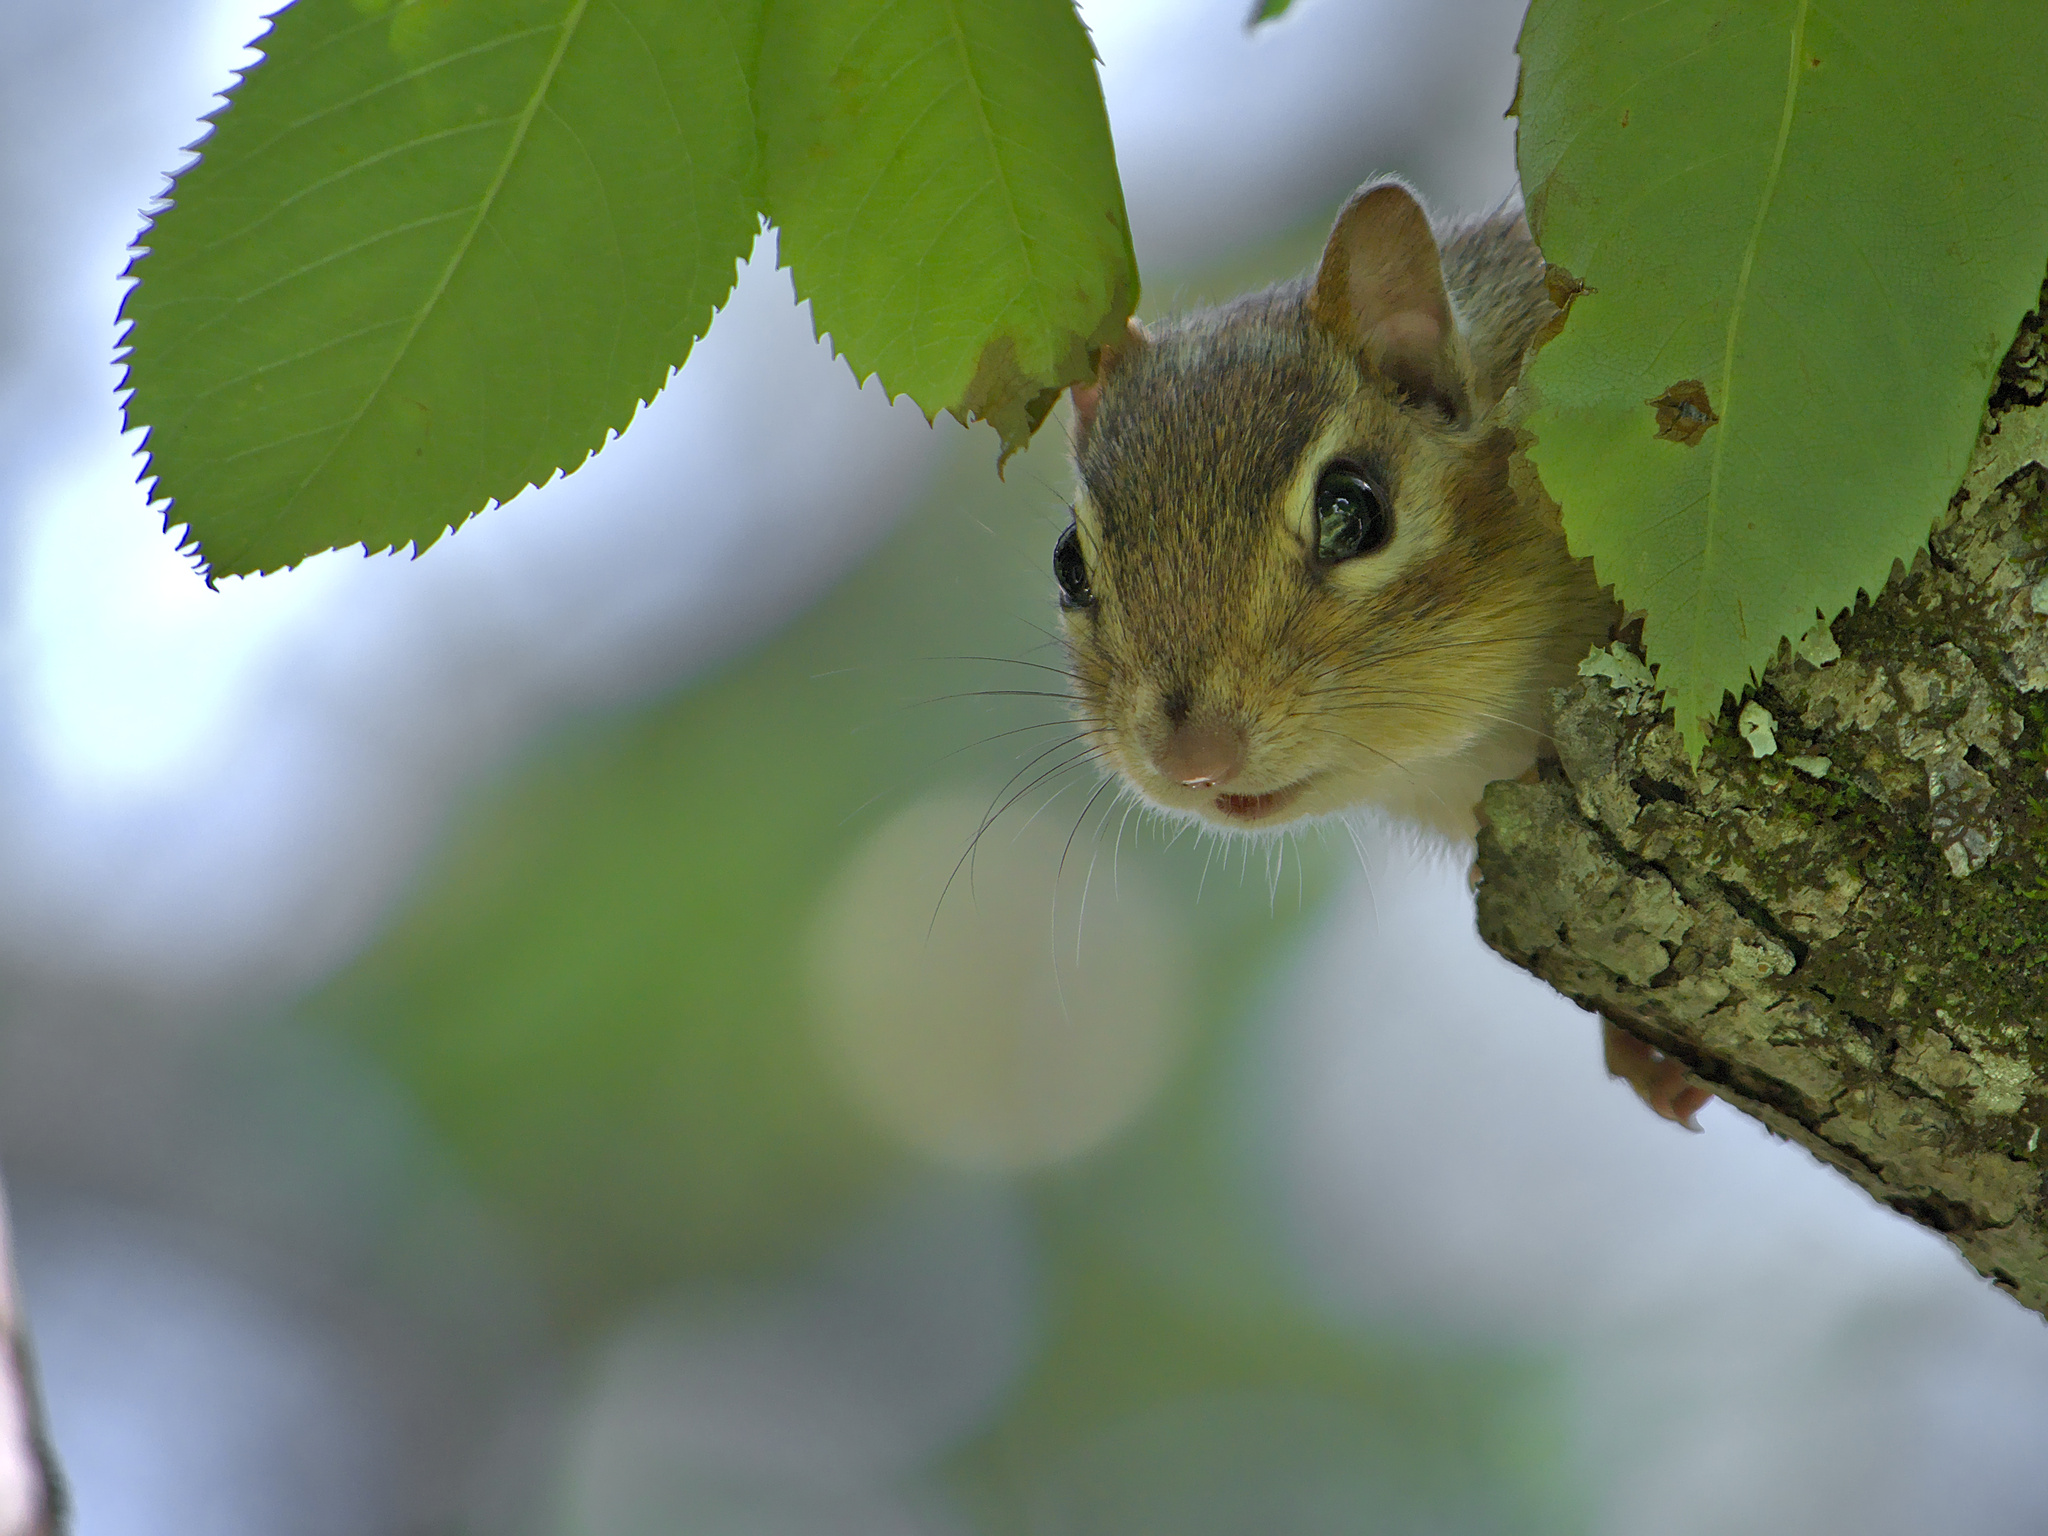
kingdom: Animalia
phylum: Chordata
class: Mammalia
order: Rodentia
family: Sciuridae
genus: Tamias
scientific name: Tamias striatus
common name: Eastern chipmunk
